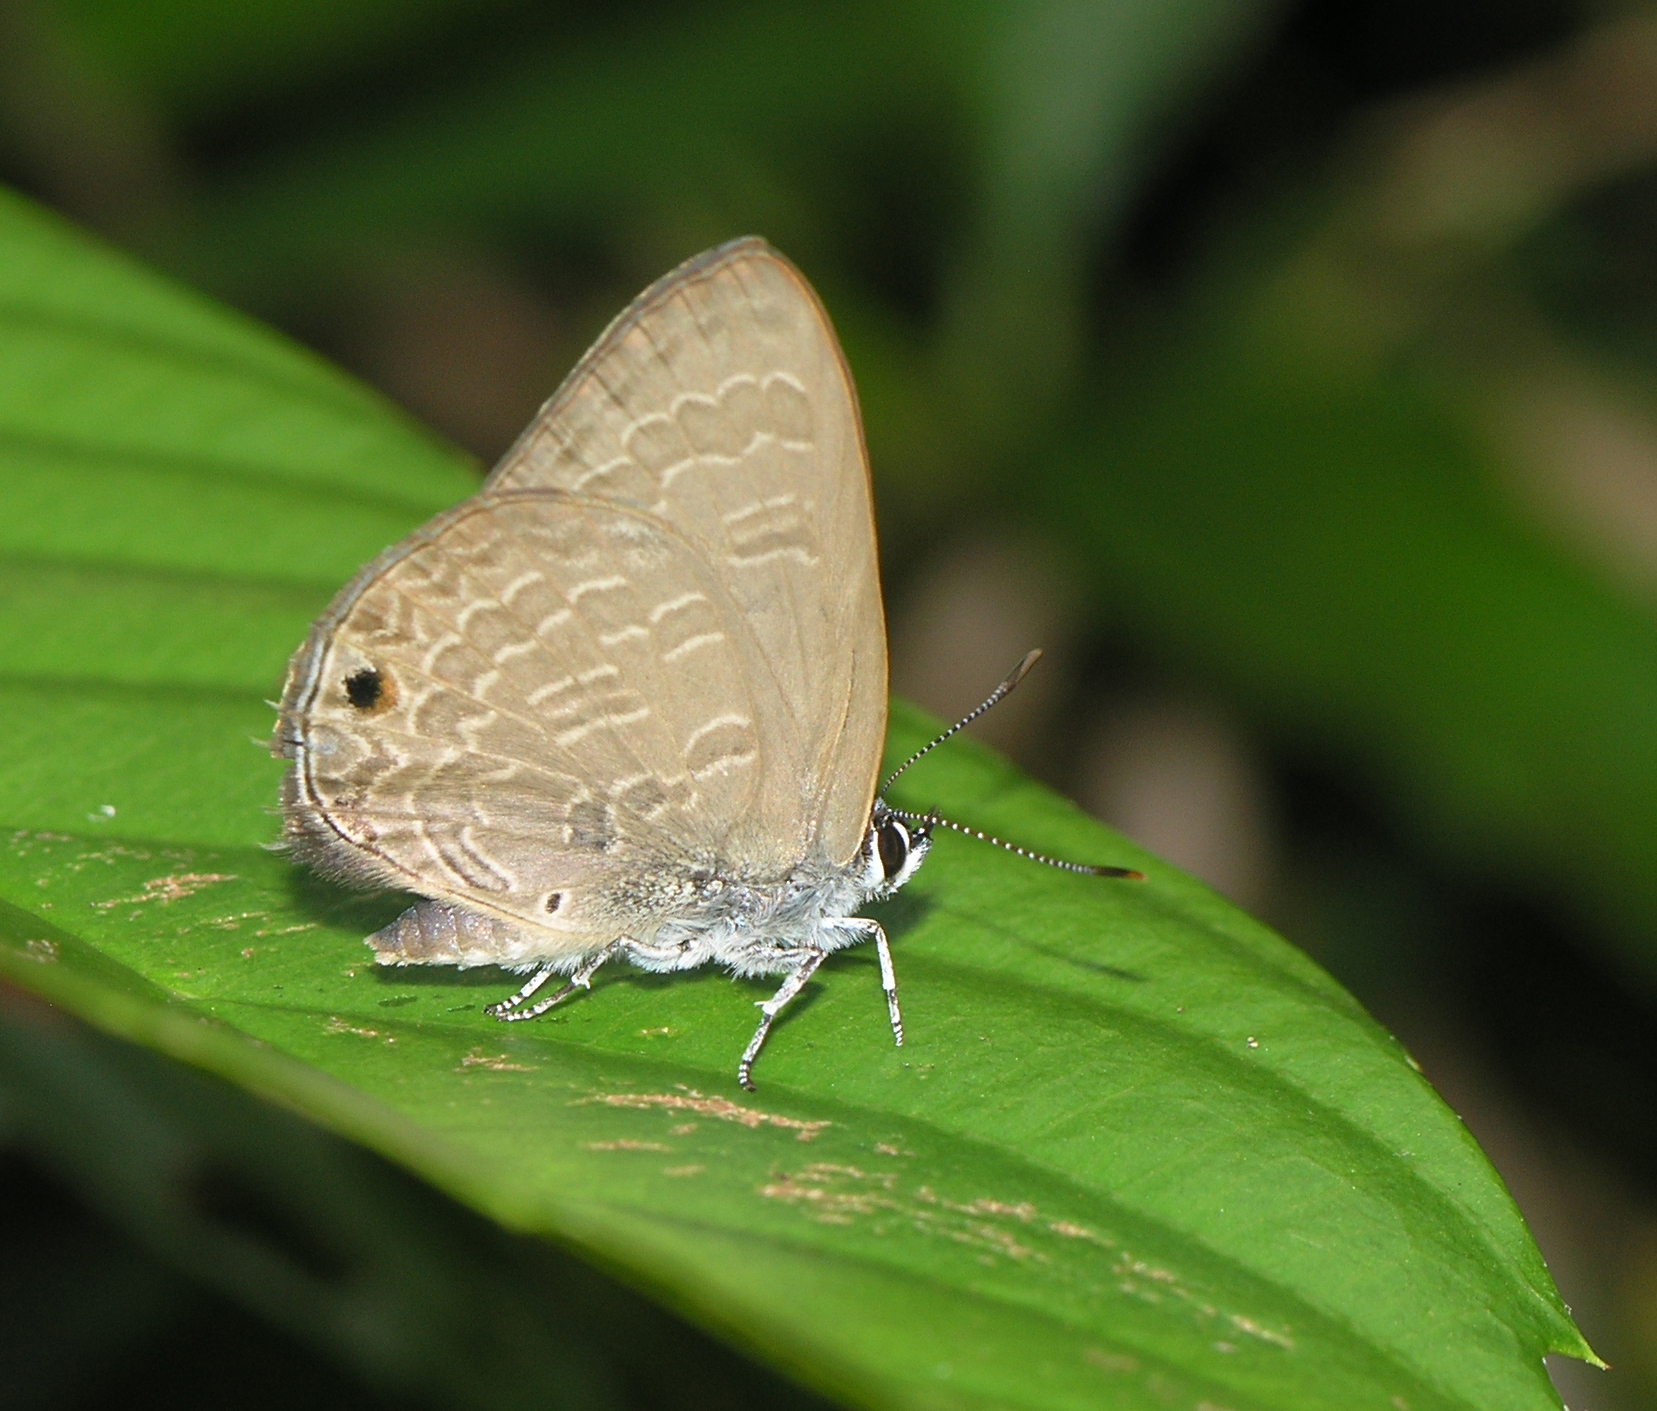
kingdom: Animalia
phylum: Arthropoda
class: Insecta
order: Lepidoptera
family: Lycaenidae
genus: Anthene
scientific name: Anthene emolus
